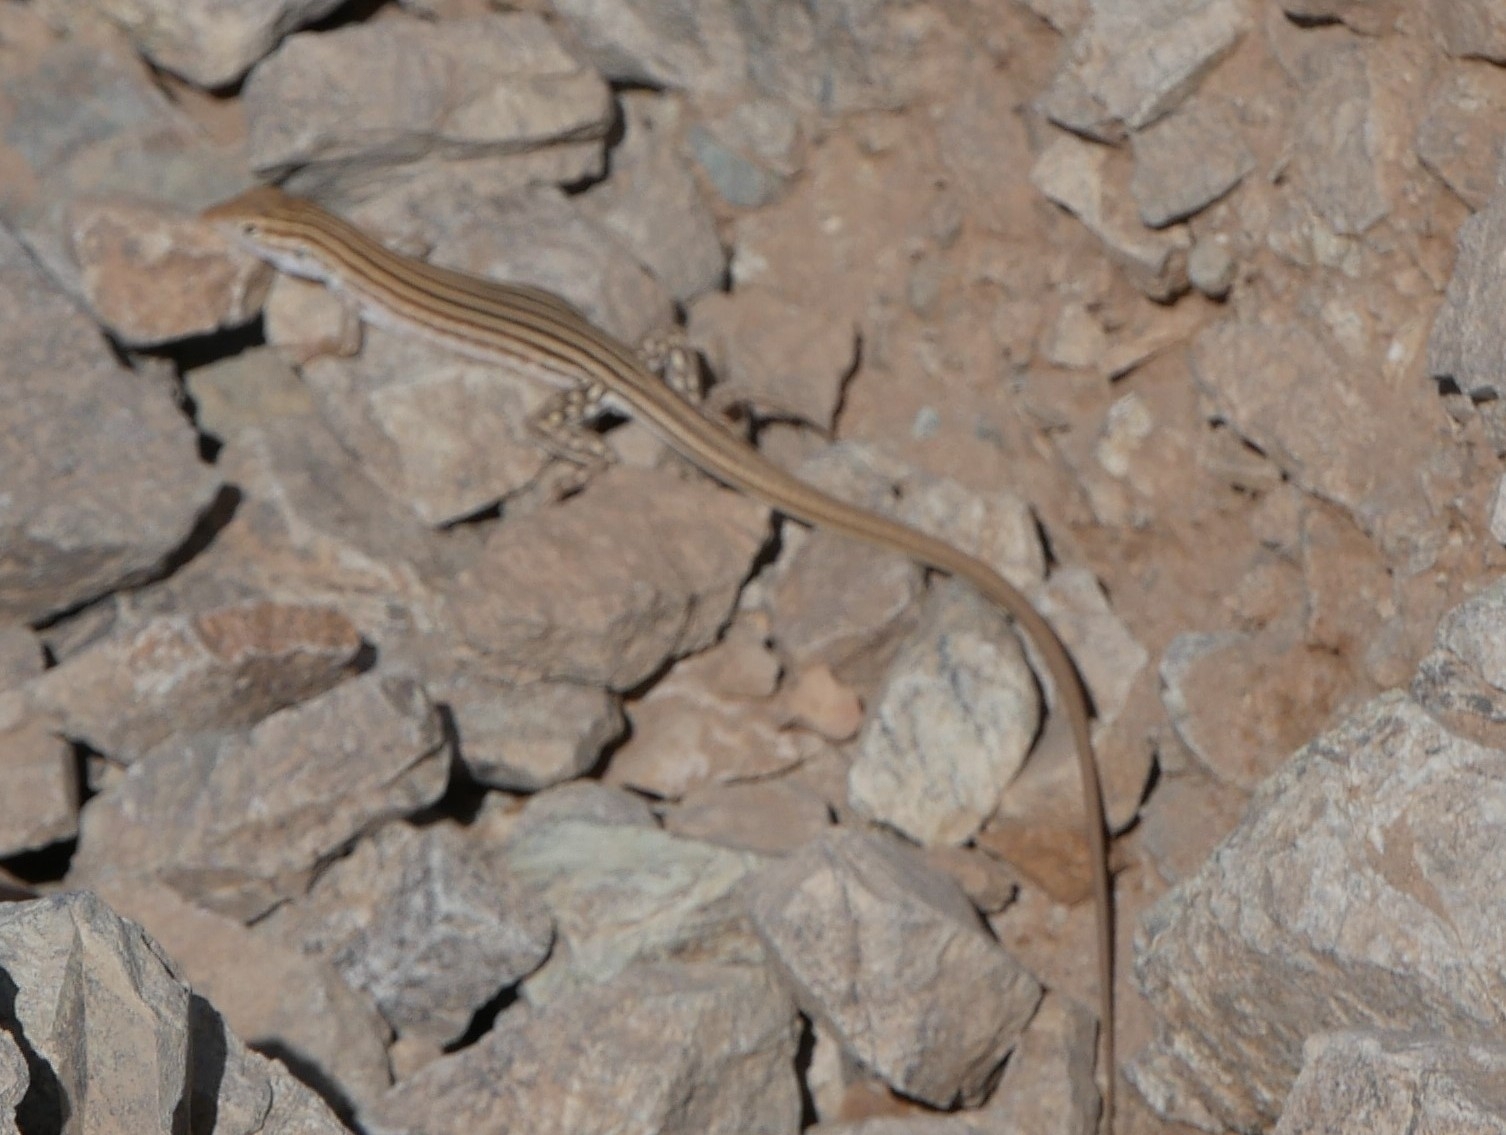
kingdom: Animalia
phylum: Chordata
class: Squamata
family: Teiidae
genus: Cnemidophorus
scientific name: Cnemidophorus
